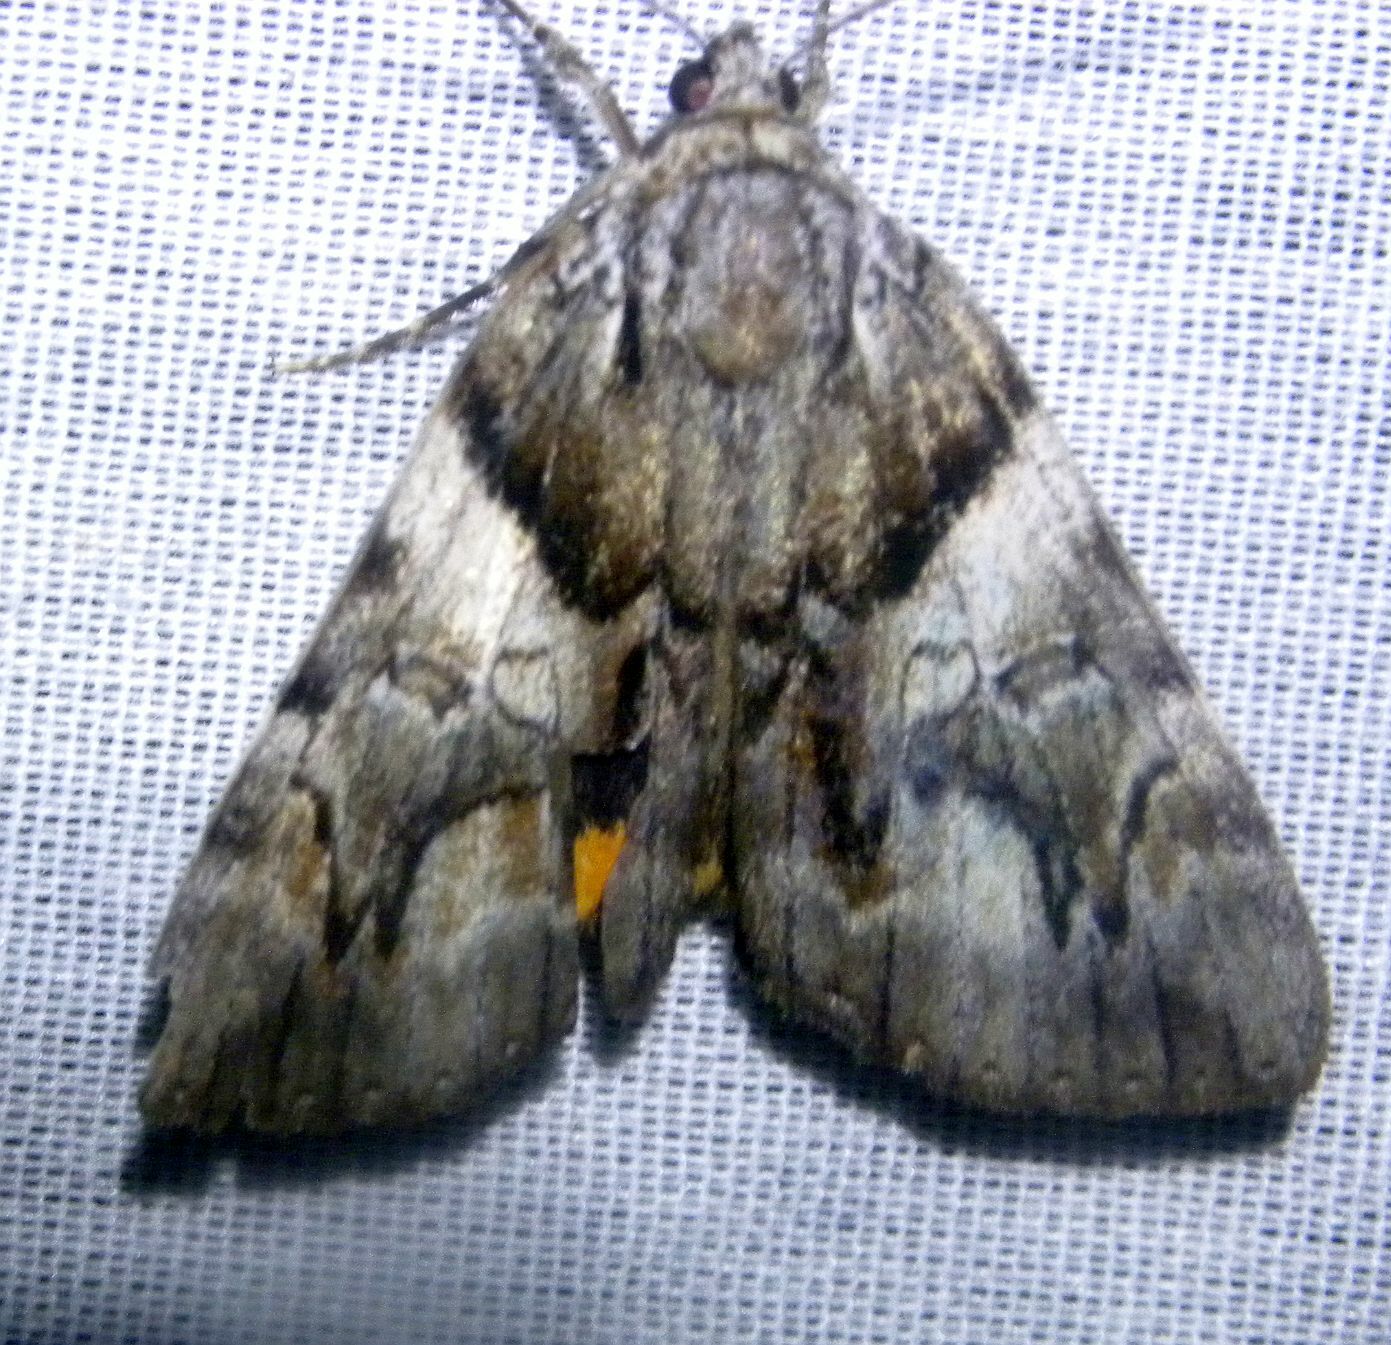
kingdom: Animalia
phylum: Arthropoda
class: Insecta
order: Lepidoptera
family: Erebidae
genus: Catocala
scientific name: Catocala blandula
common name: Charming underwing
